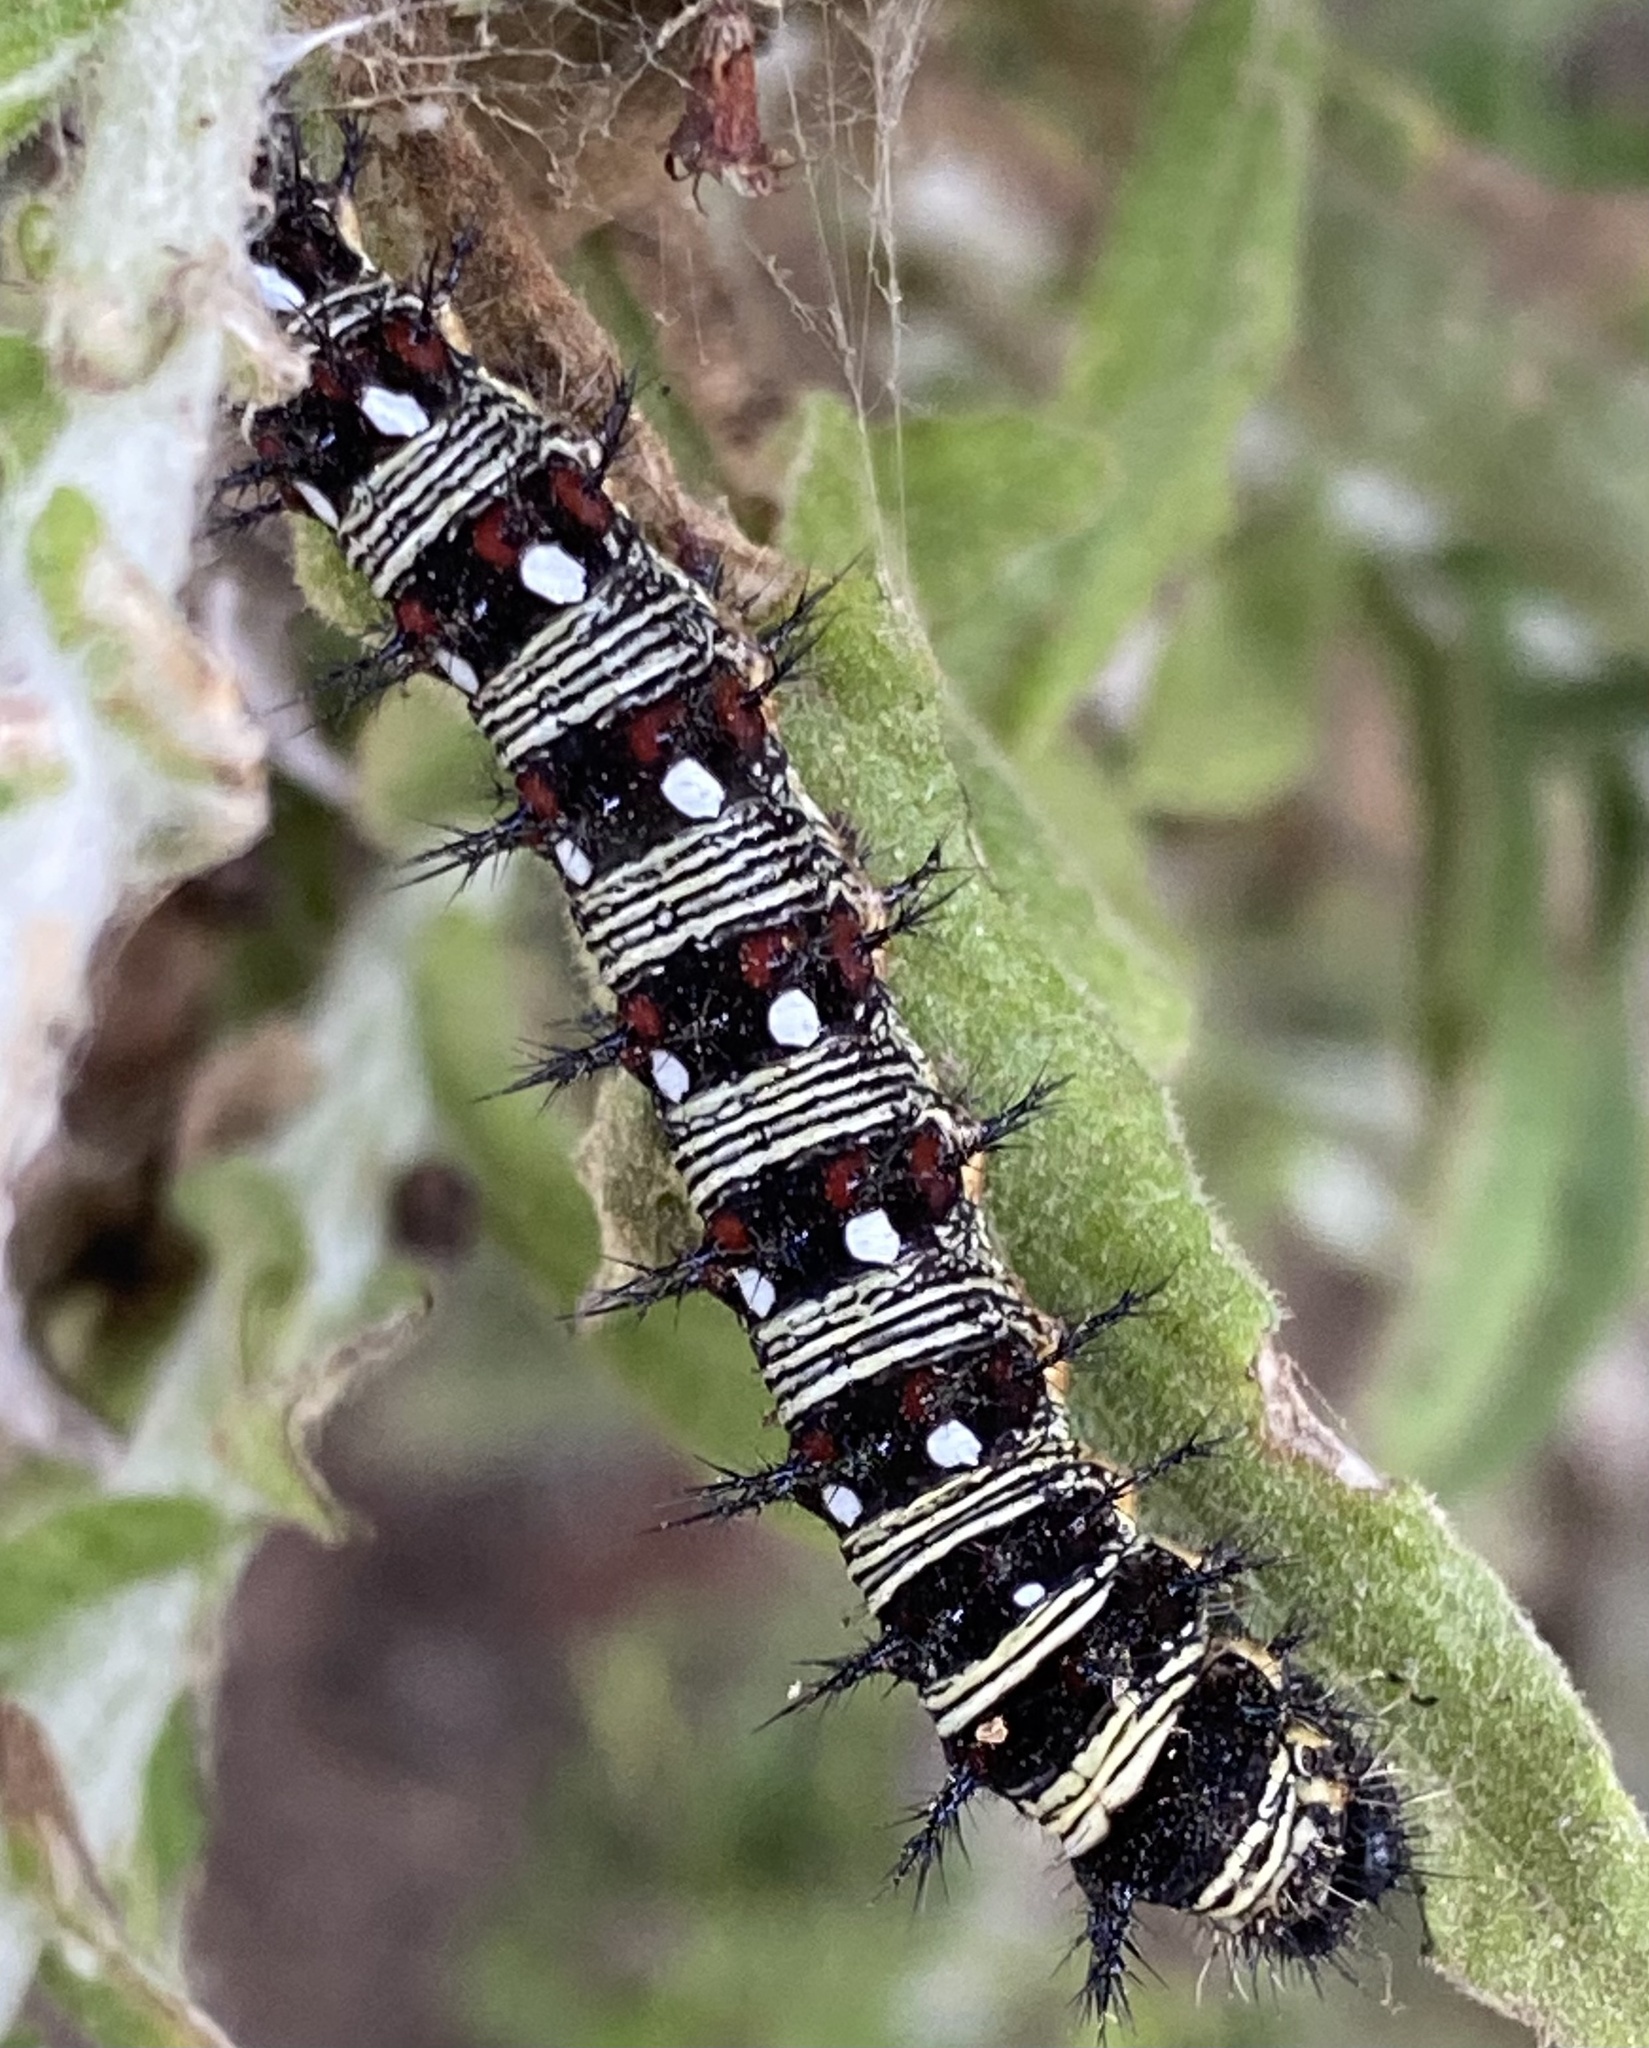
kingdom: Animalia
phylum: Arthropoda
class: Insecta
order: Lepidoptera
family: Nymphalidae
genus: Vanessa
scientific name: Vanessa virginiensis
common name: American lady
